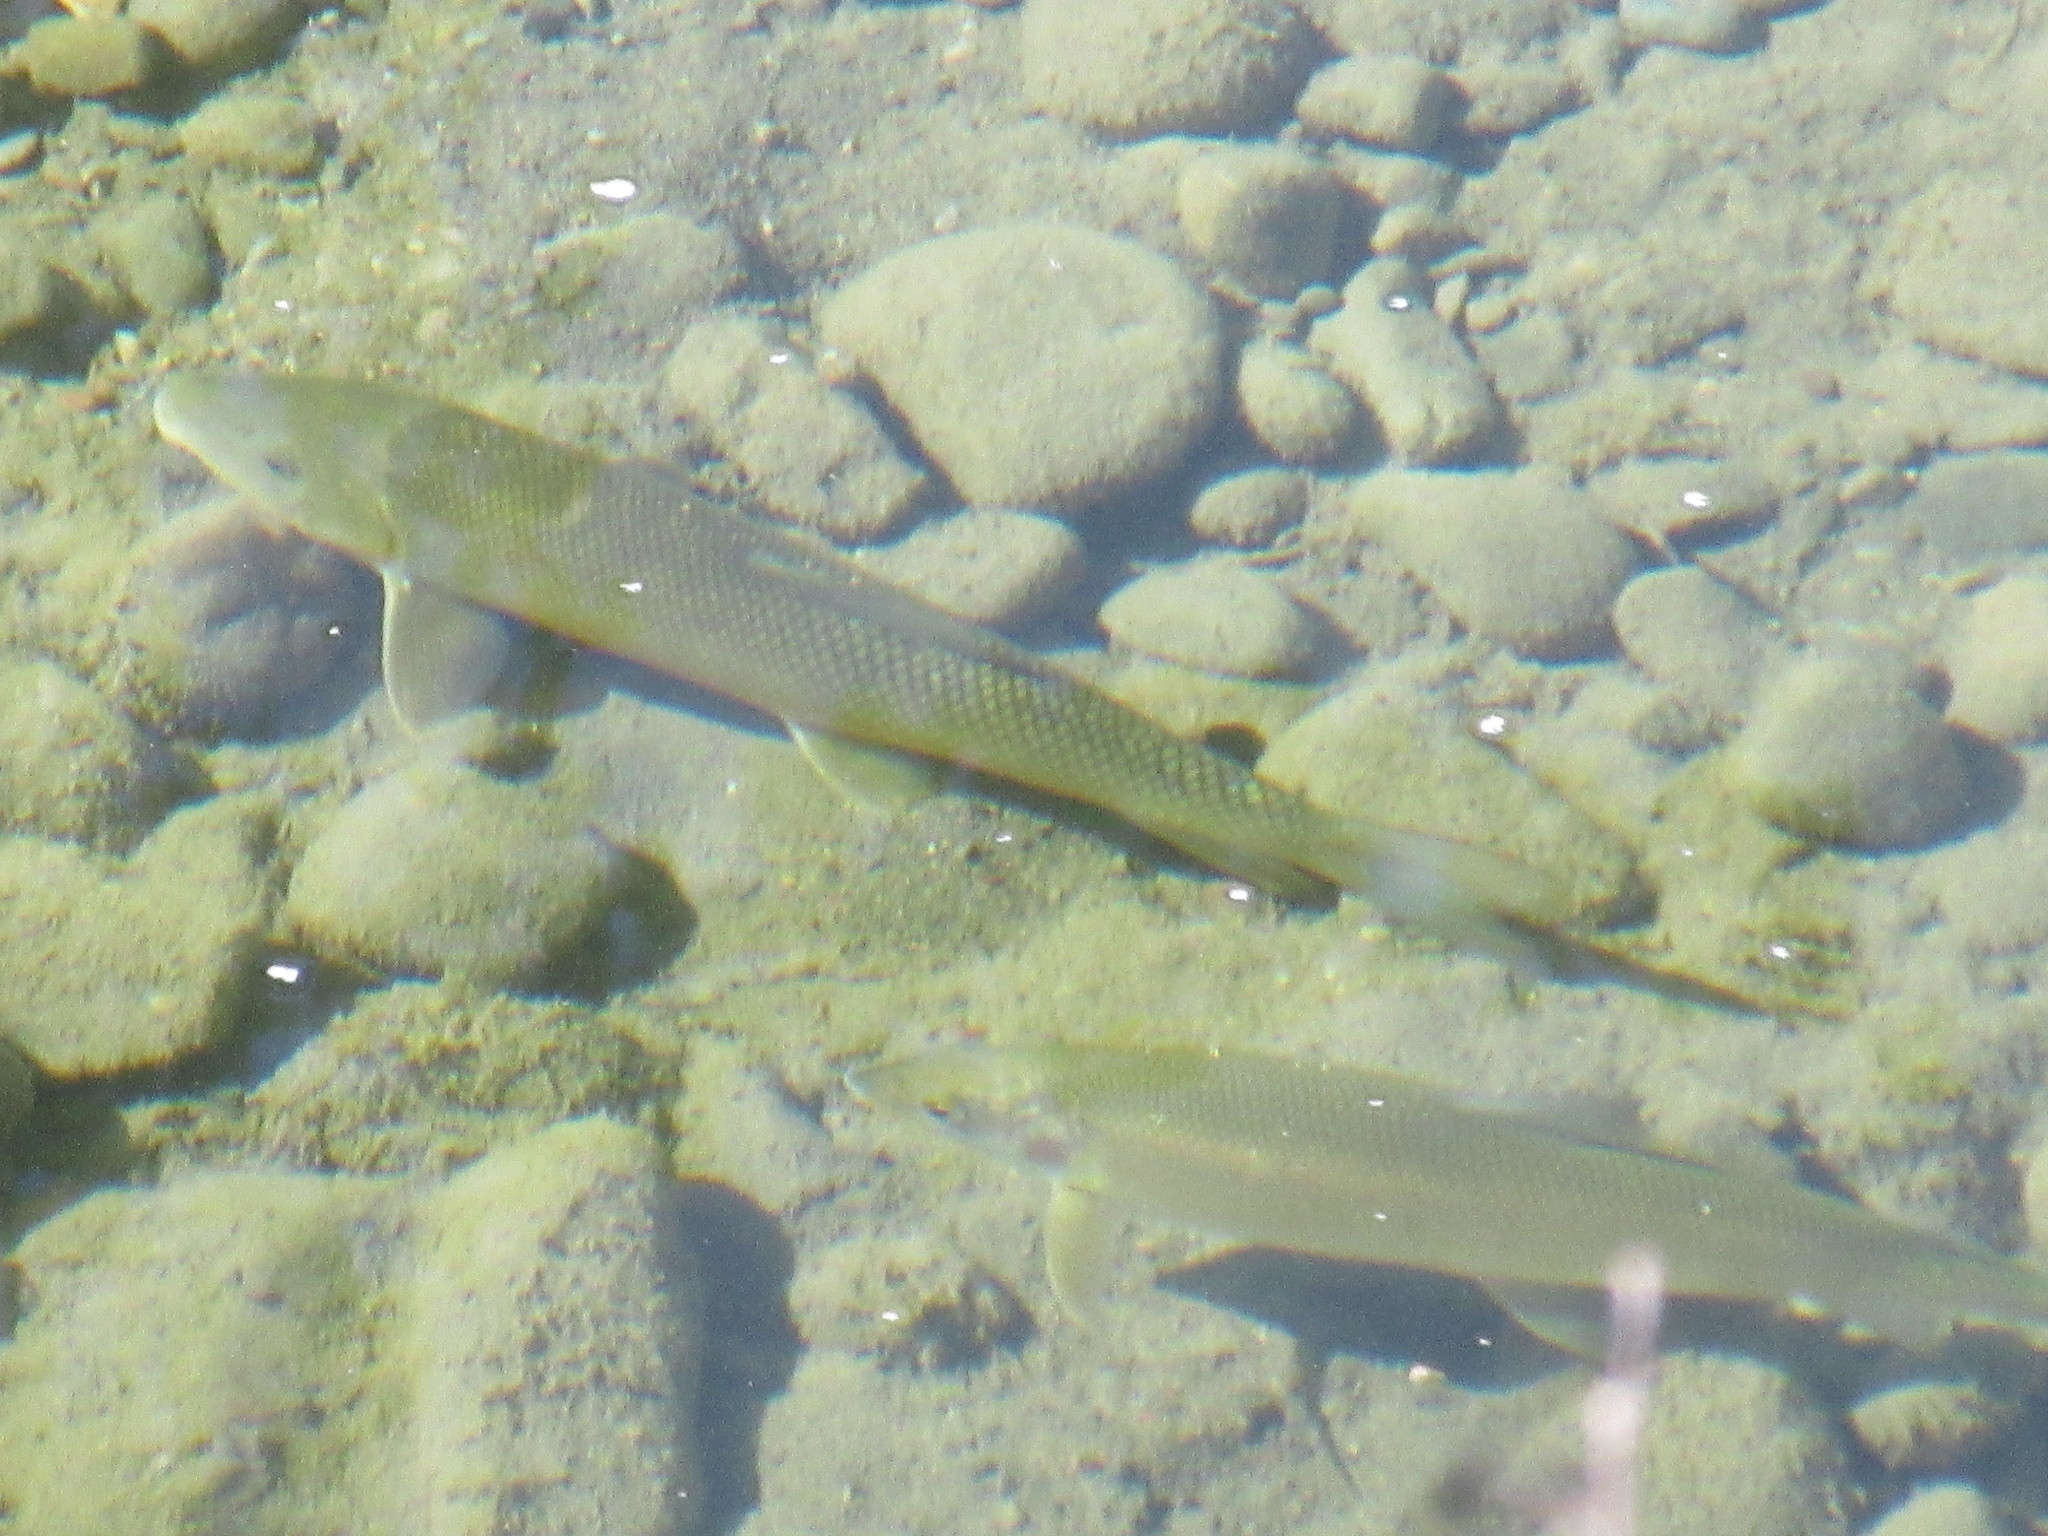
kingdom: Animalia
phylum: Chordata
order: Cypriniformes
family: Catostomidae
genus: Catostomus
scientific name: Catostomus commersonii
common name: White sucker
